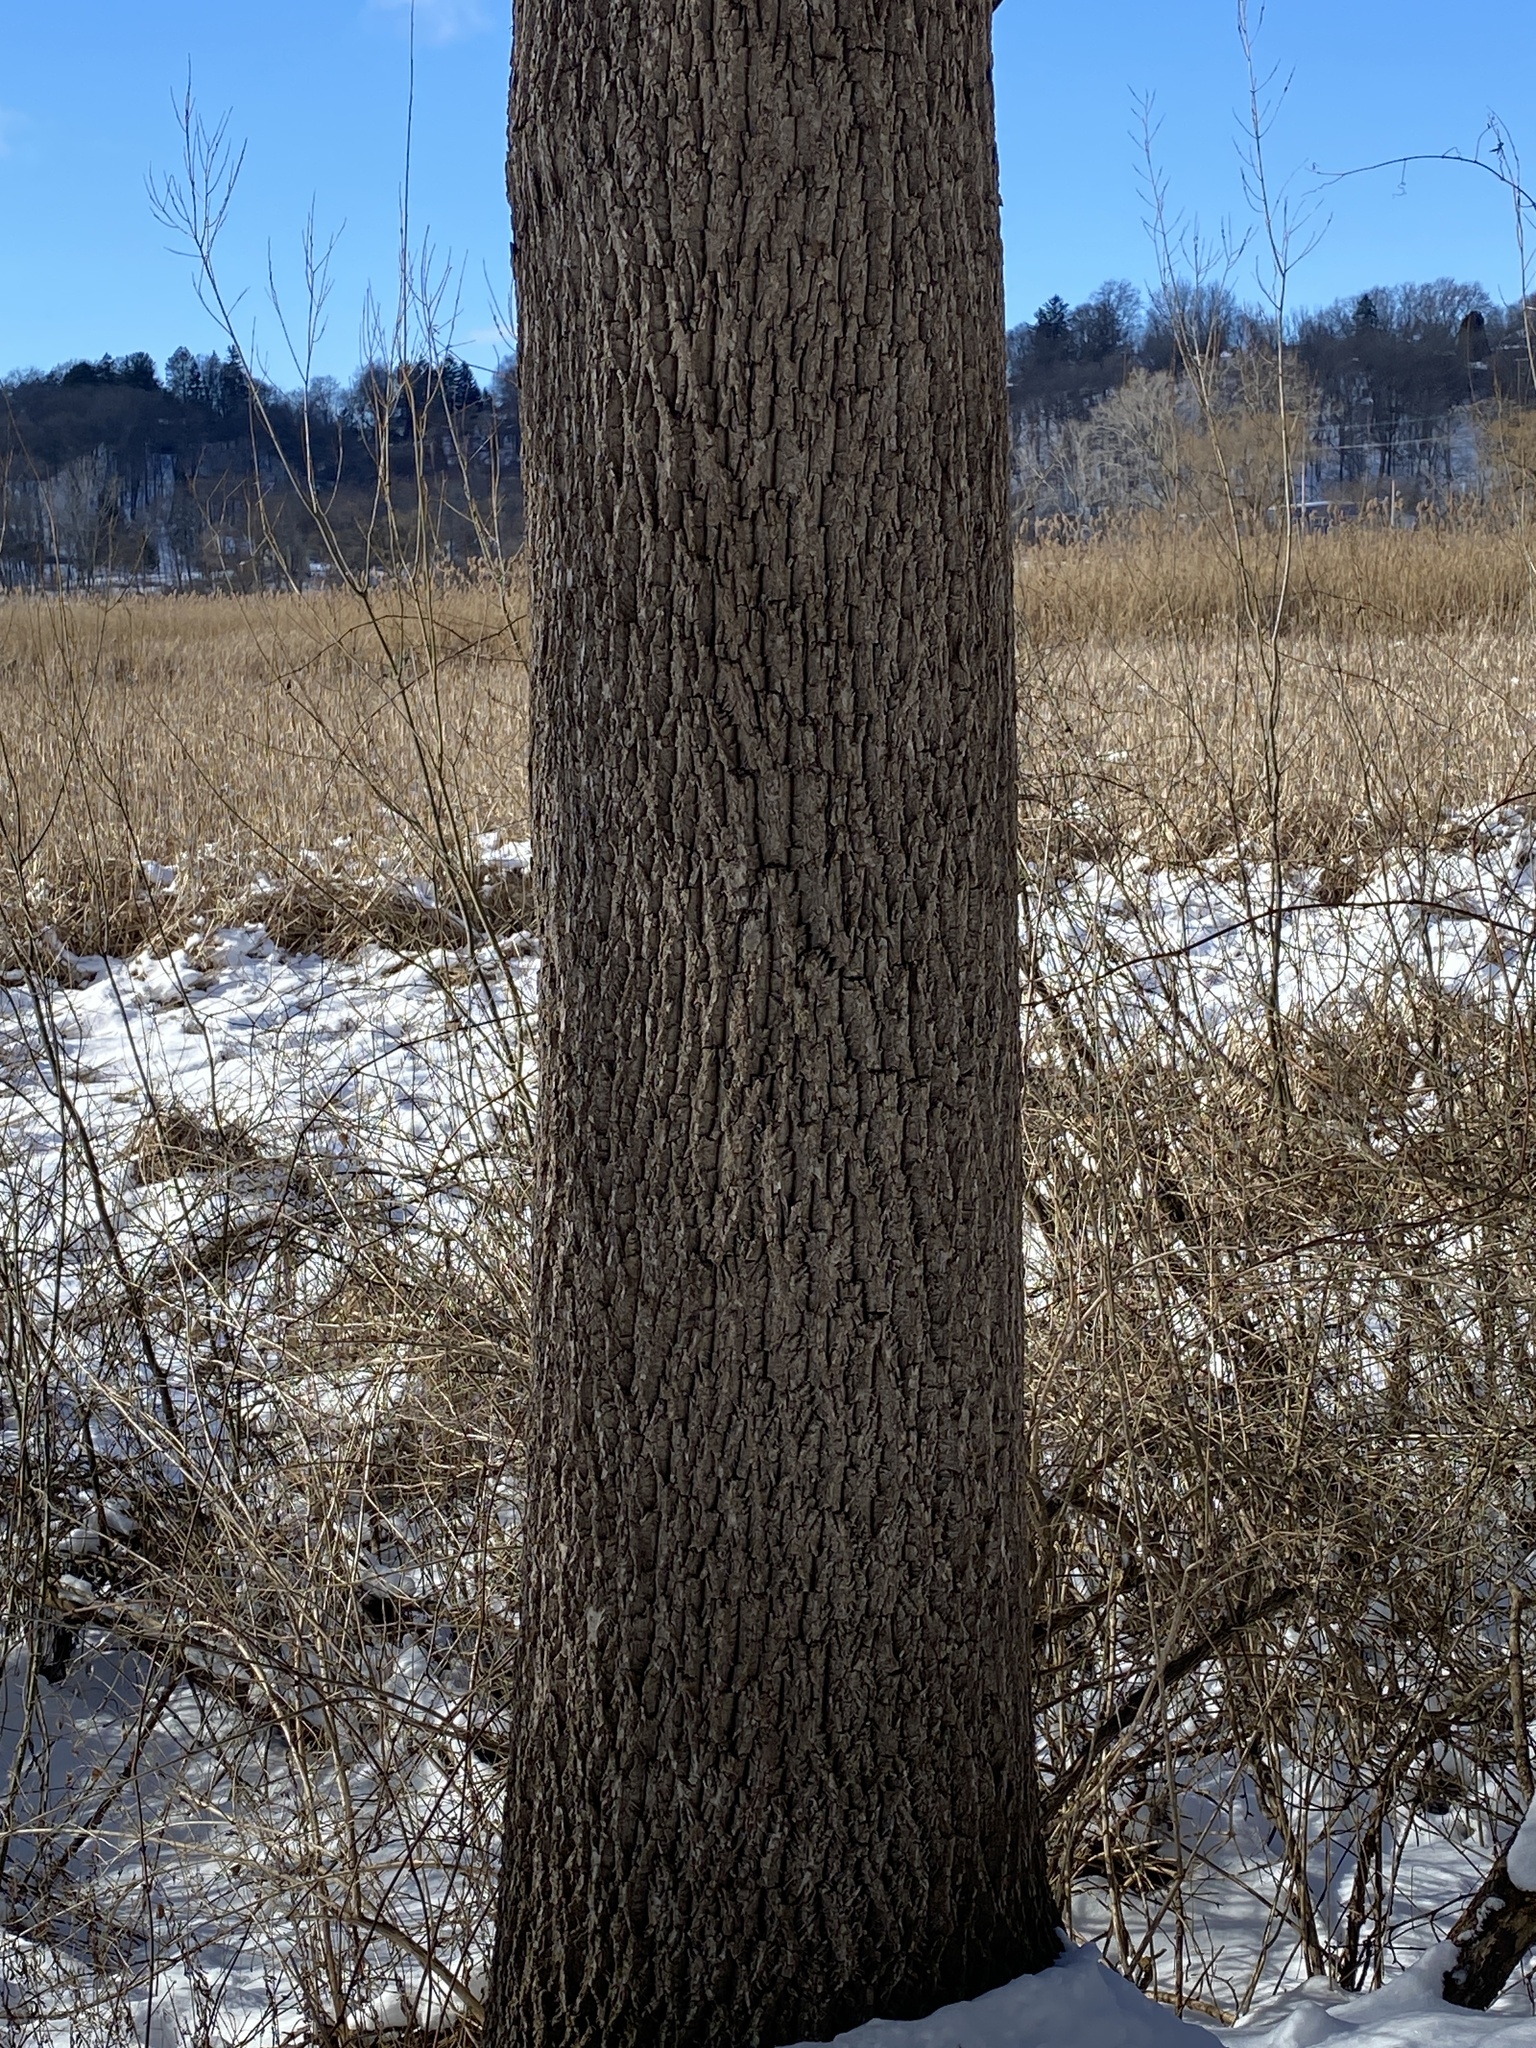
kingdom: Plantae
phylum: Tracheophyta
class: Magnoliopsida
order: Fagales
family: Juglandaceae
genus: Juglans
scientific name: Juglans nigra
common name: Black walnut
